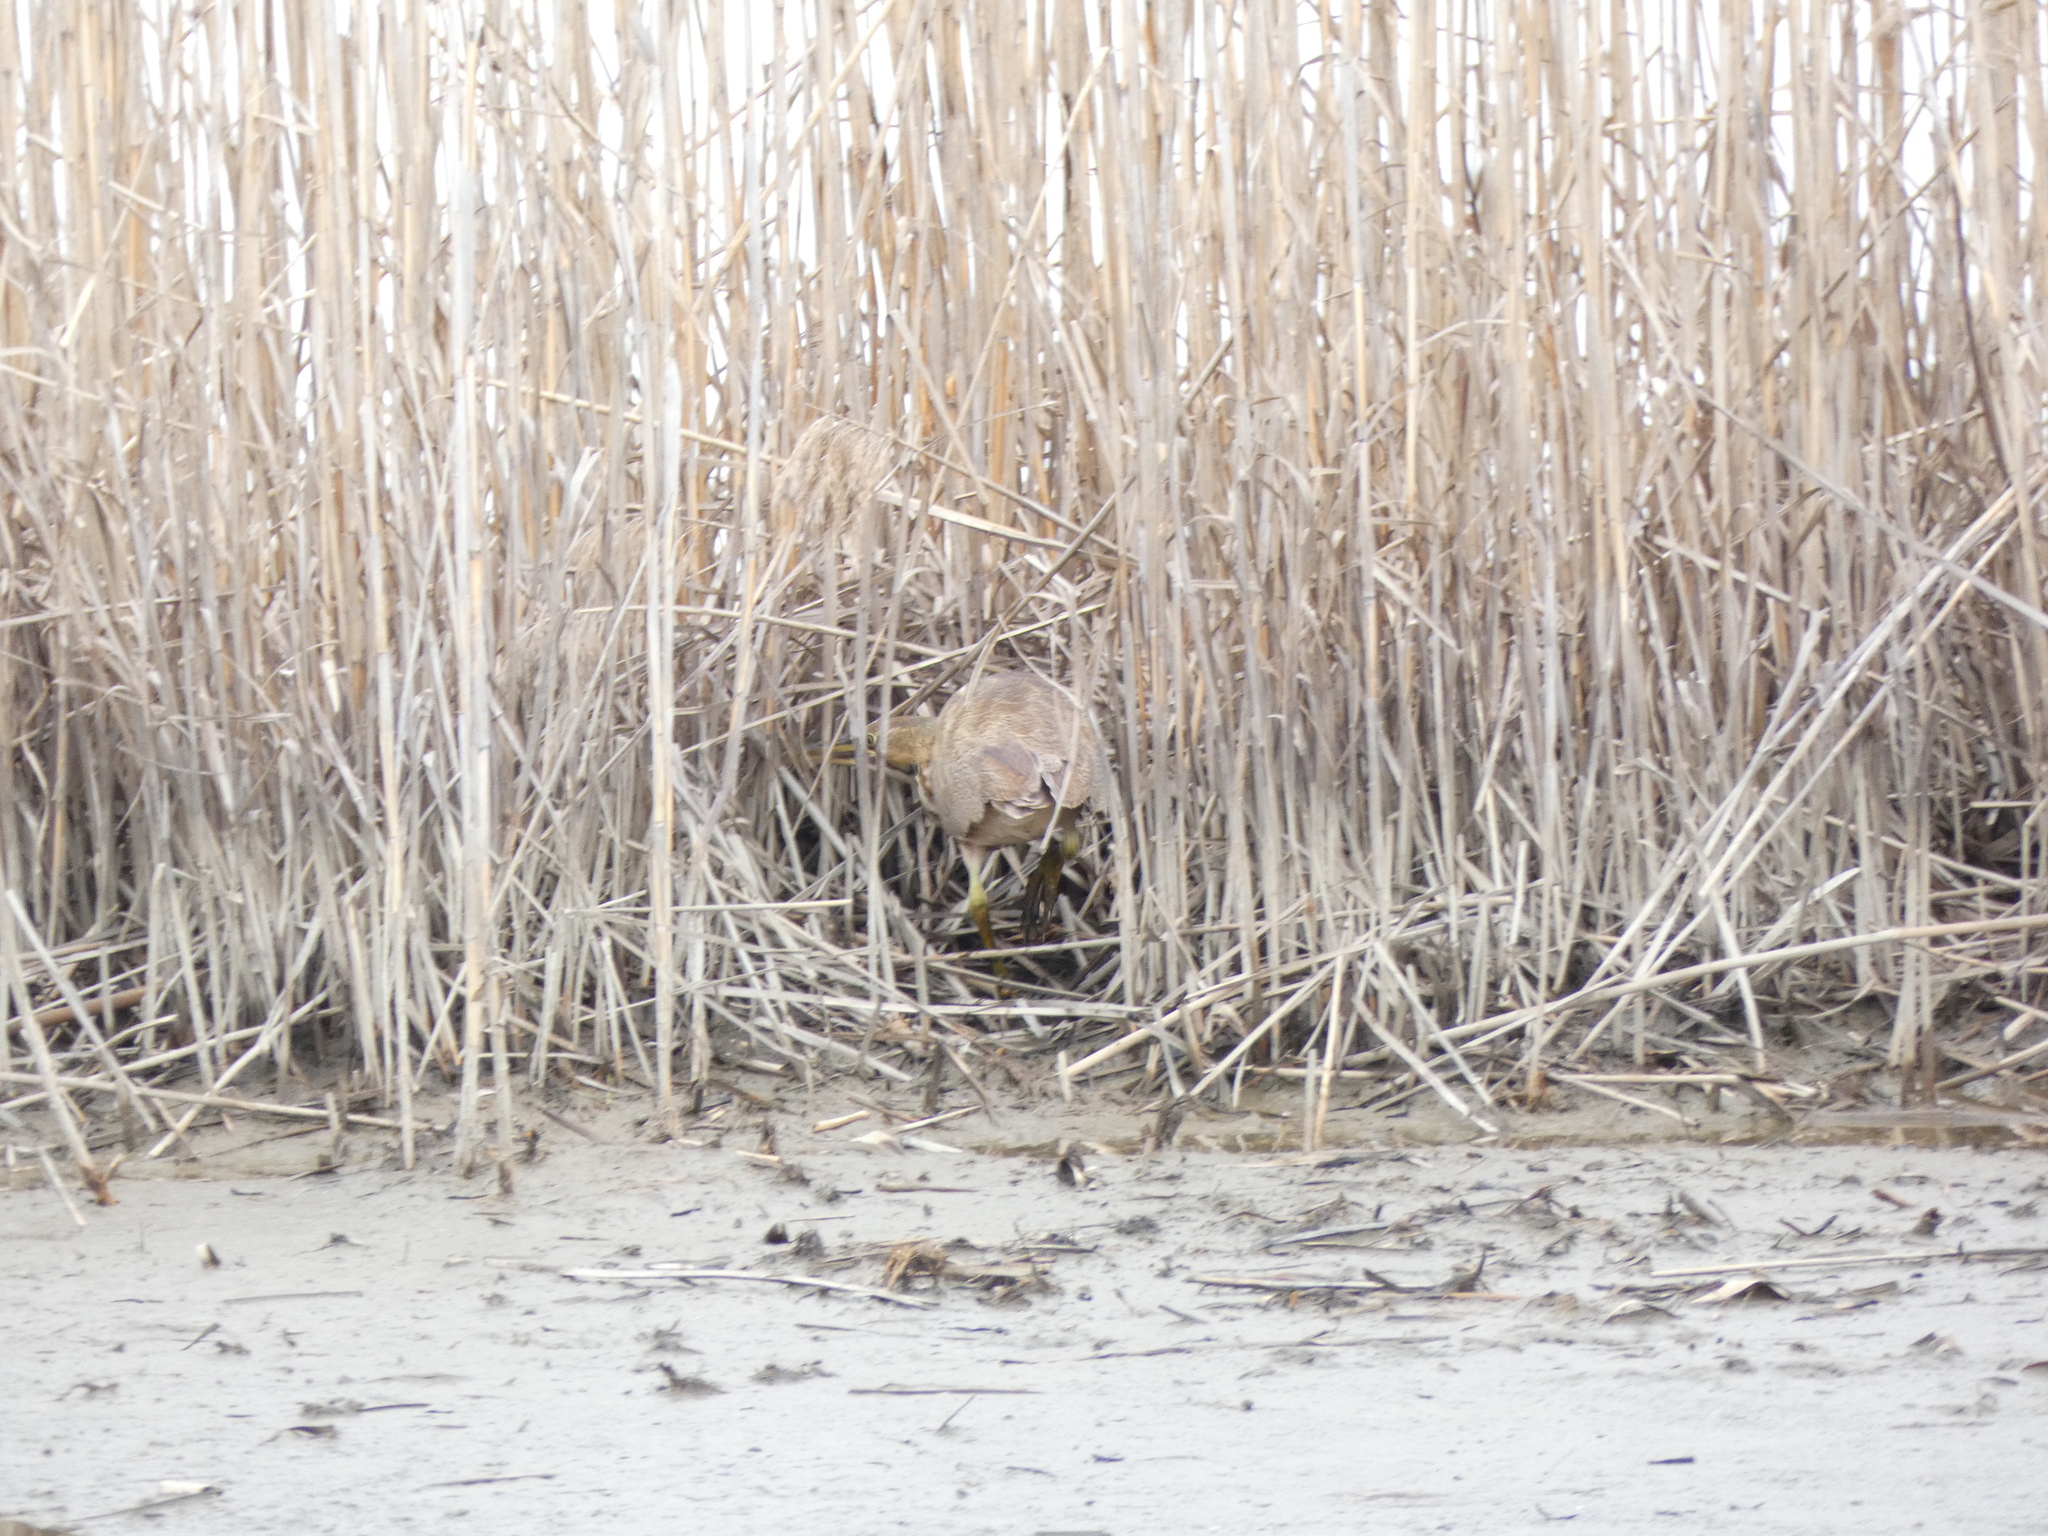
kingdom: Animalia
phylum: Chordata
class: Aves
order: Pelecaniformes
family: Ardeidae
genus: Botaurus
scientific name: Botaurus lentiginosus
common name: American bittern
